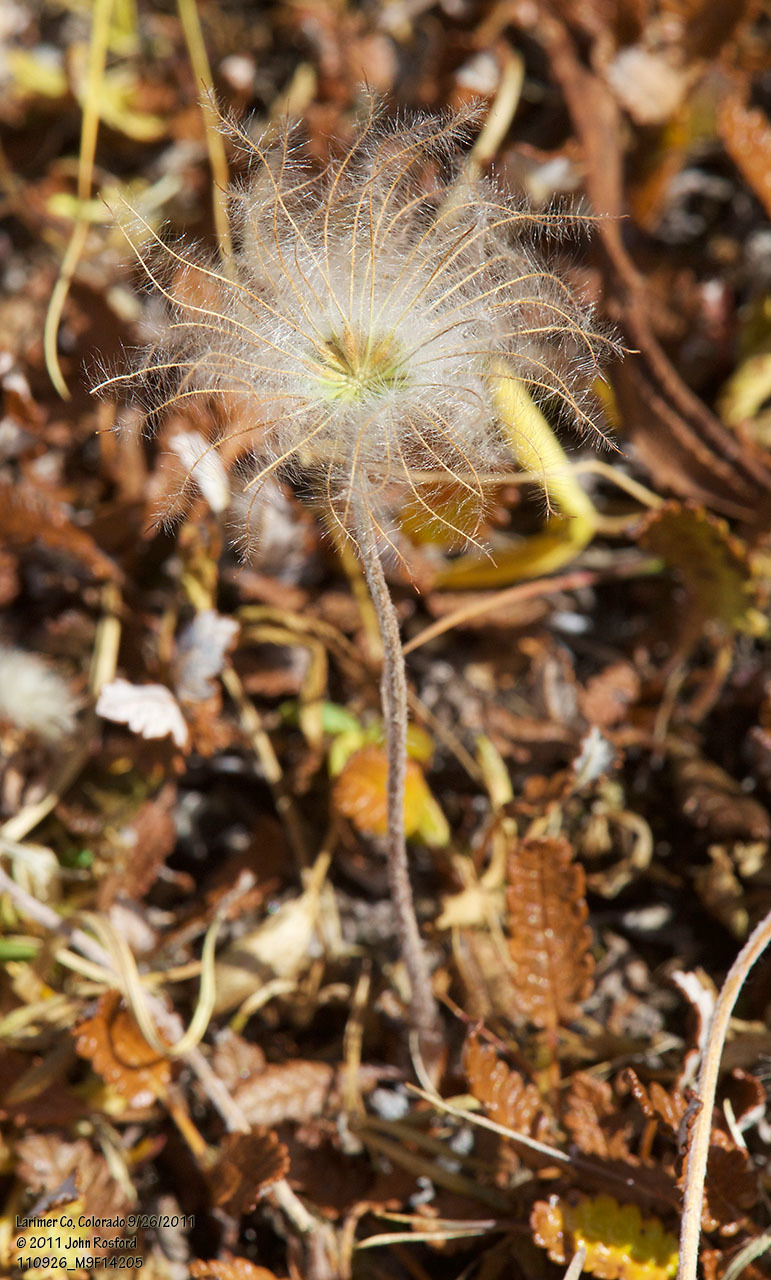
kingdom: Plantae
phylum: Tracheophyta
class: Magnoliopsida
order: Rosales
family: Rosaceae
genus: Dryas
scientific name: Dryas octopetala
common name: Eight-petal mountain-avens
